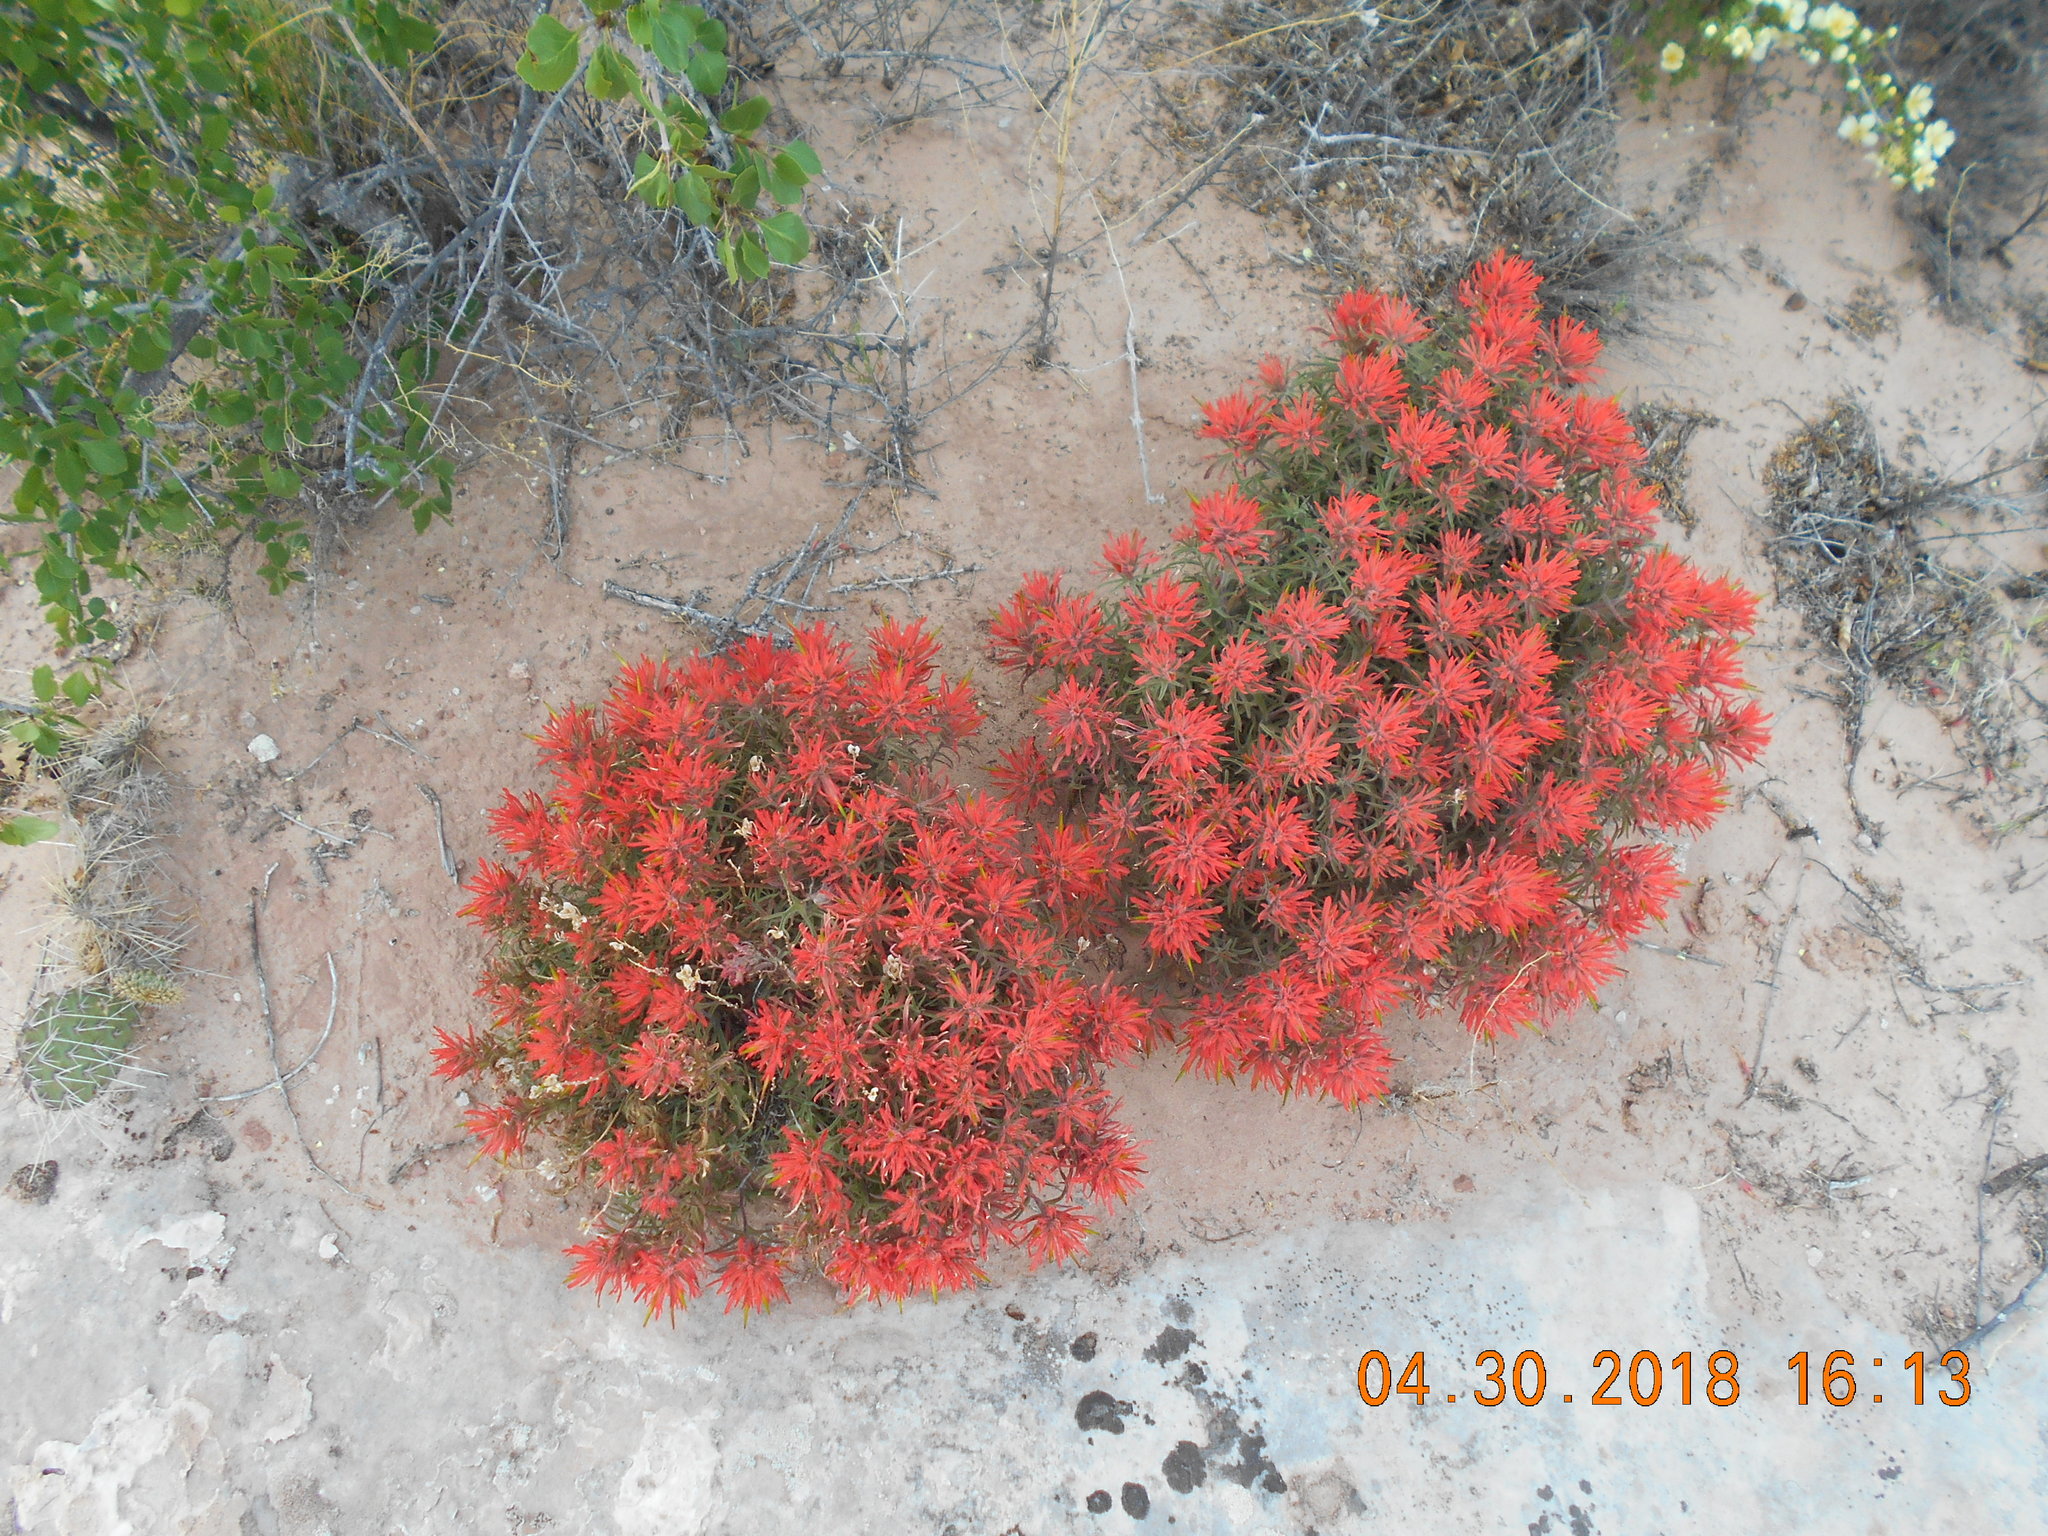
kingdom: Plantae
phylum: Tracheophyta
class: Magnoliopsida
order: Lamiales
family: Orobanchaceae
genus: Castilleja
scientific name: Castilleja scabrida
